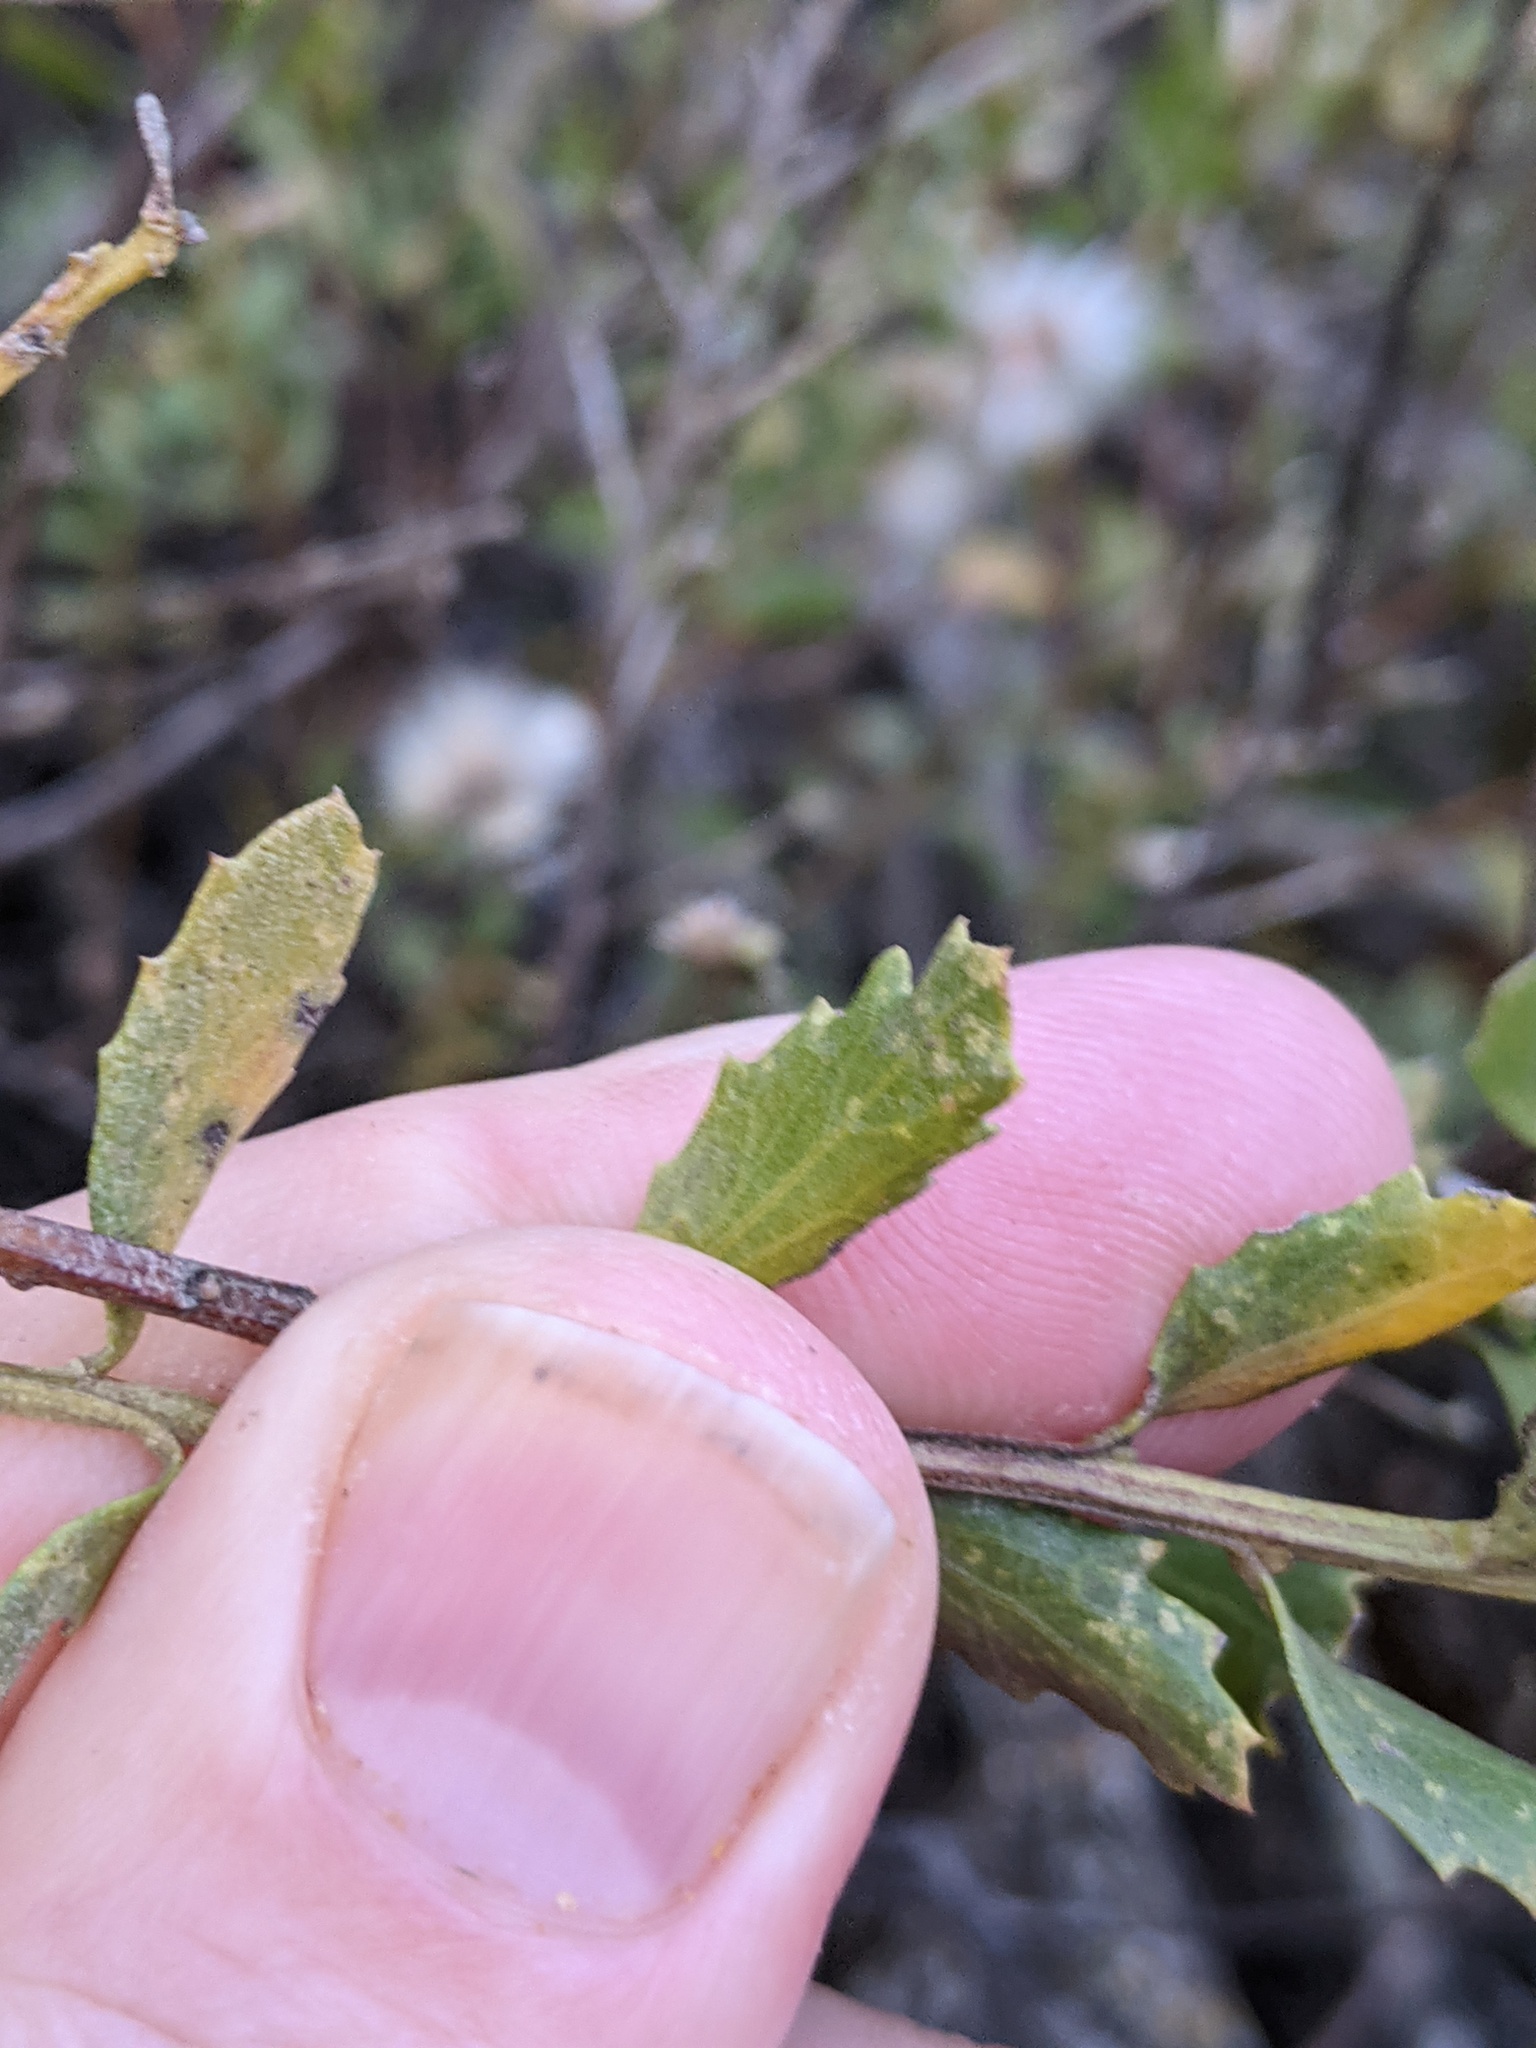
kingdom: Plantae
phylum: Tracheophyta
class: Magnoliopsida
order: Asterales
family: Asteraceae
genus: Baccharis
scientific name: Baccharis pilularis
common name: Coyotebrush
